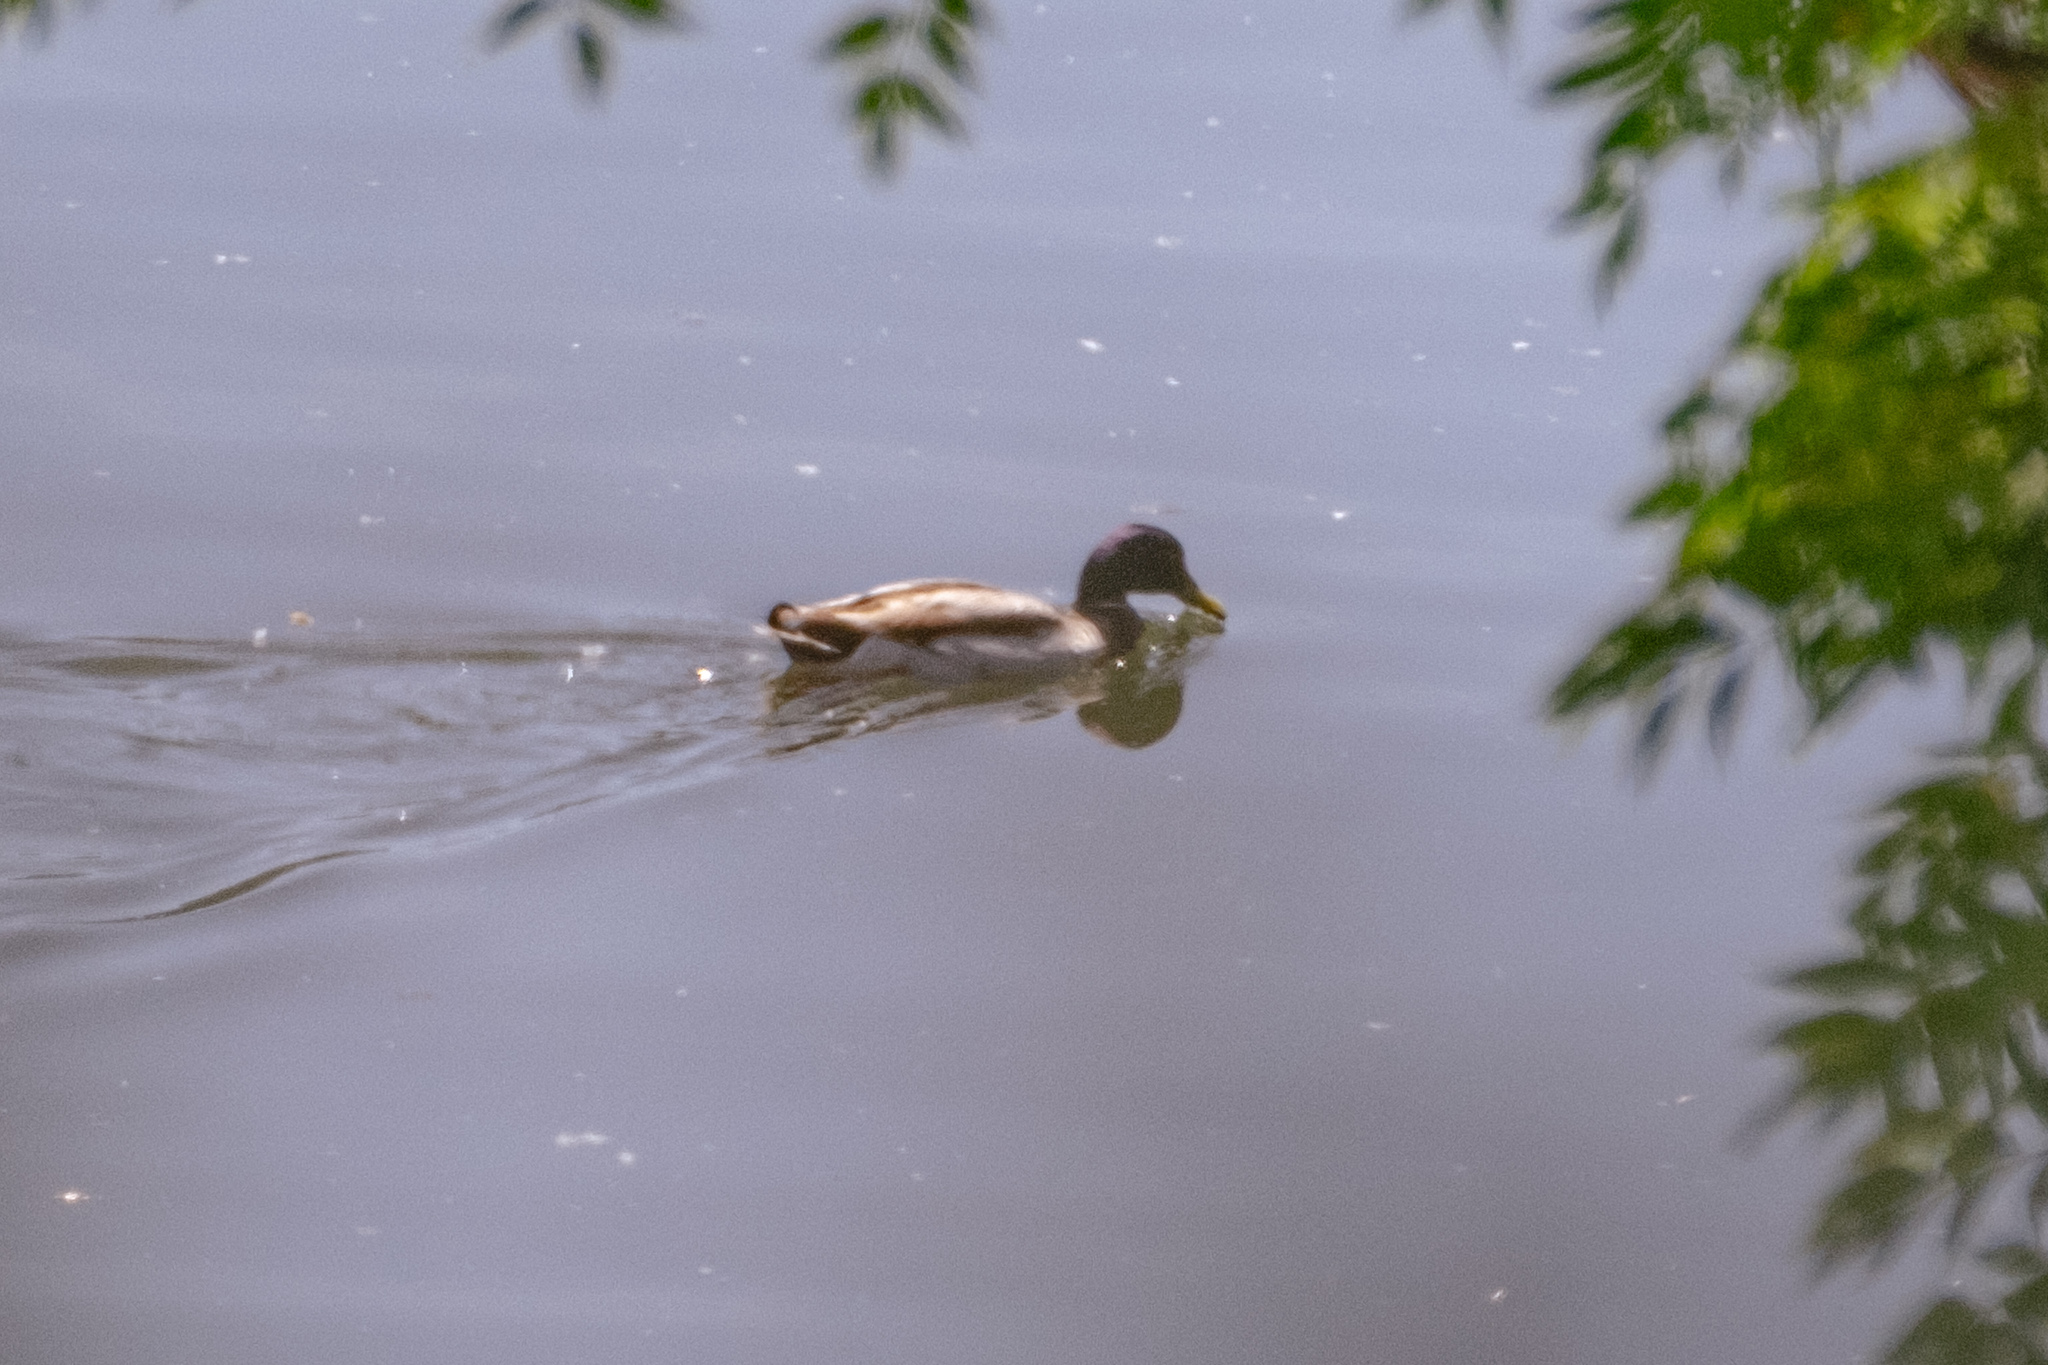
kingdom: Animalia
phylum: Chordata
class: Aves
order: Anseriformes
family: Anatidae
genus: Anas
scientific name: Anas platyrhynchos
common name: Mallard
